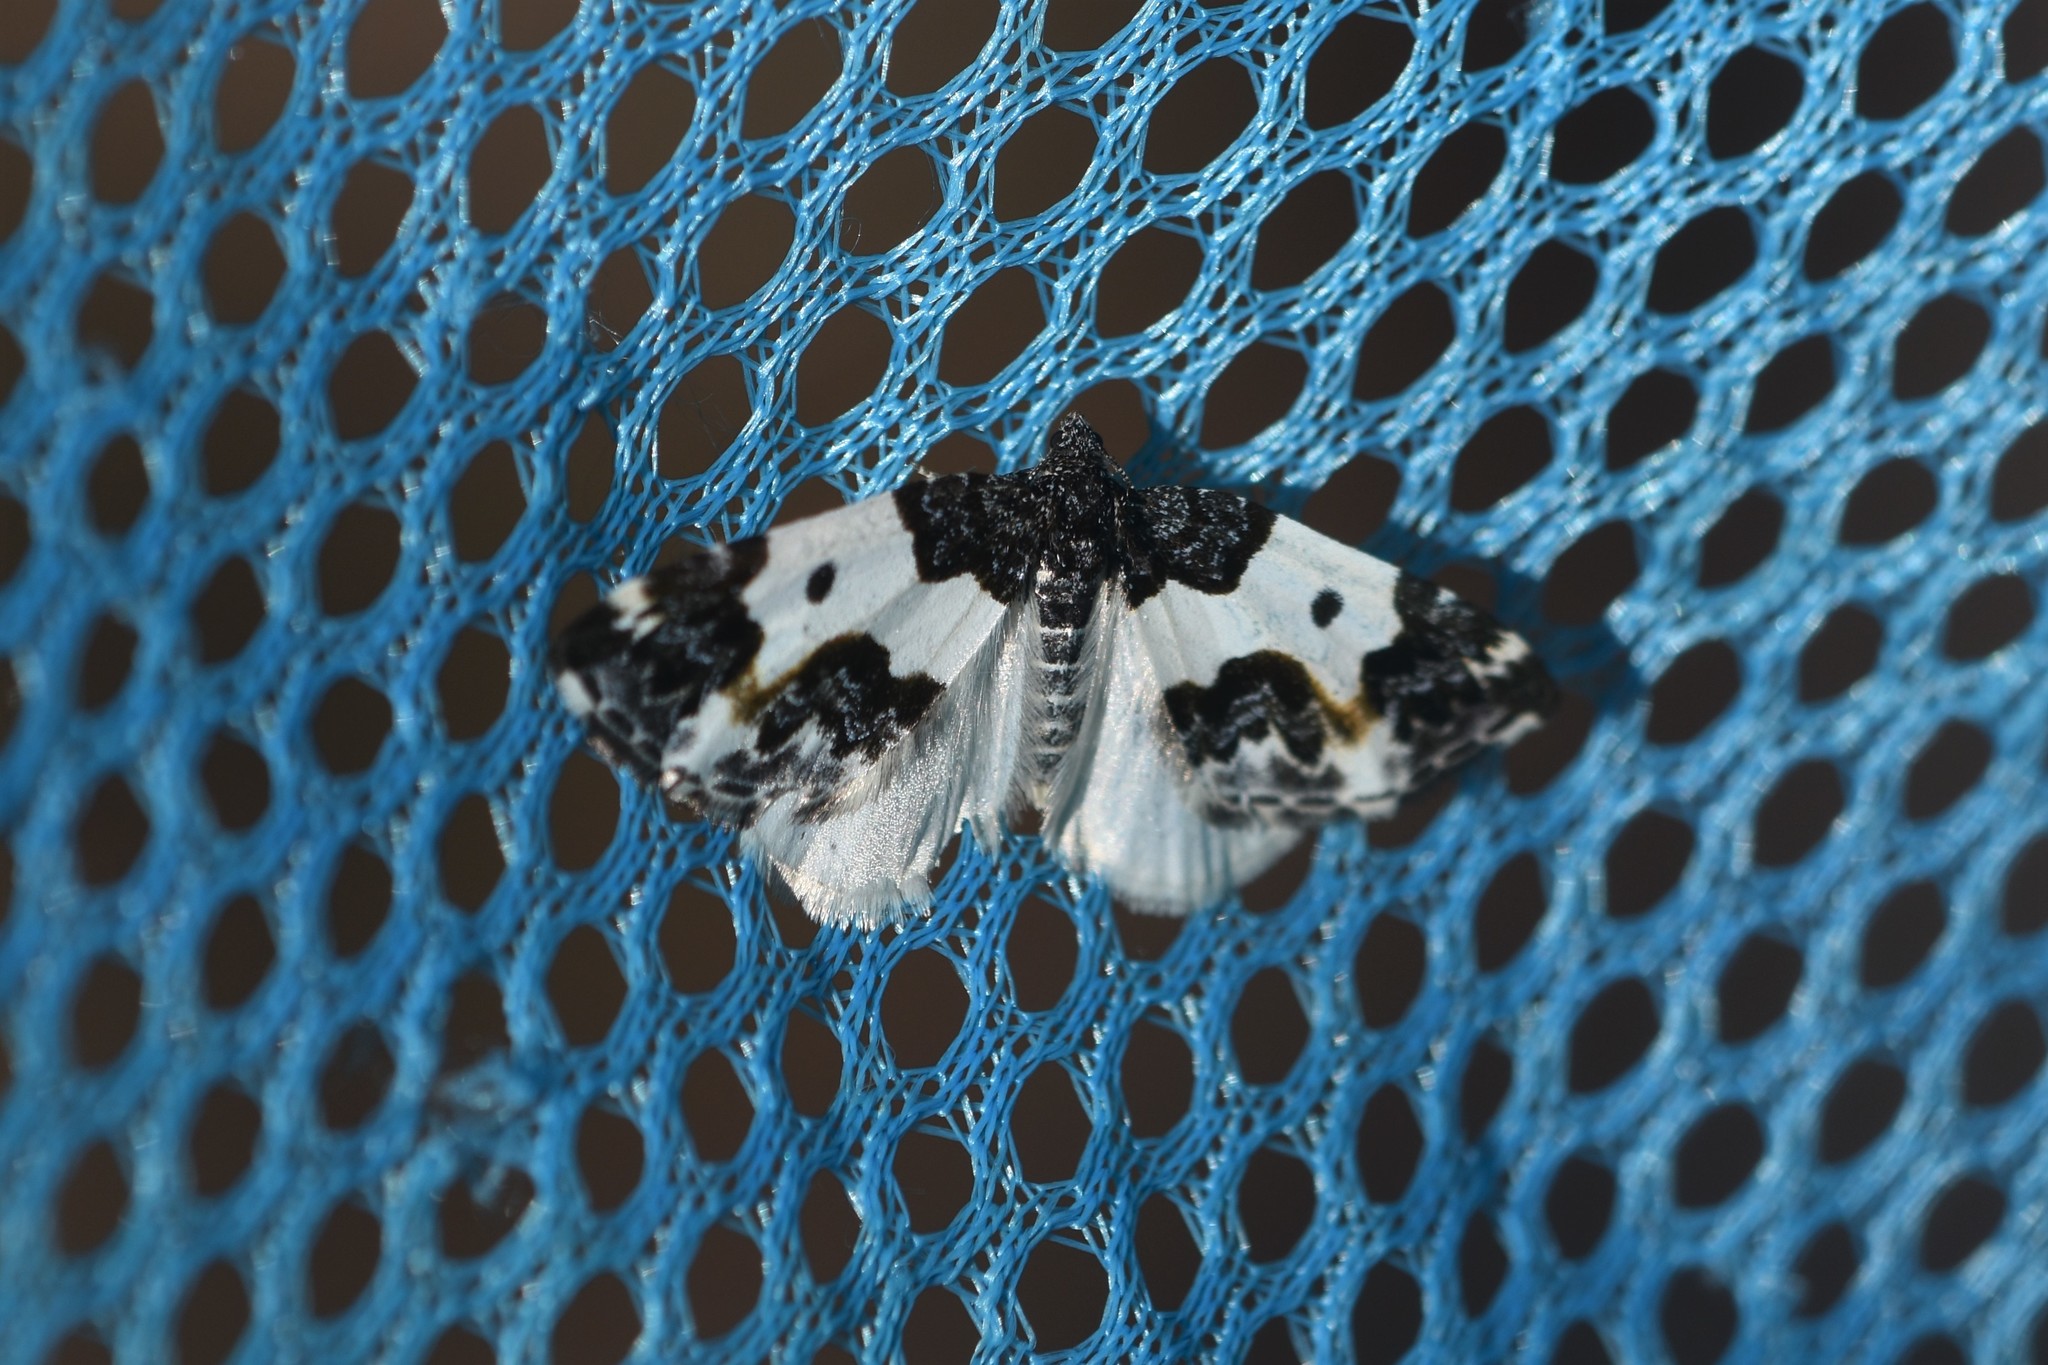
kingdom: Animalia
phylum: Arthropoda
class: Insecta
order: Lepidoptera
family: Geometridae
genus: Mesoleuca
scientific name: Mesoleuca gratulata
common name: Half-white carpet moth
